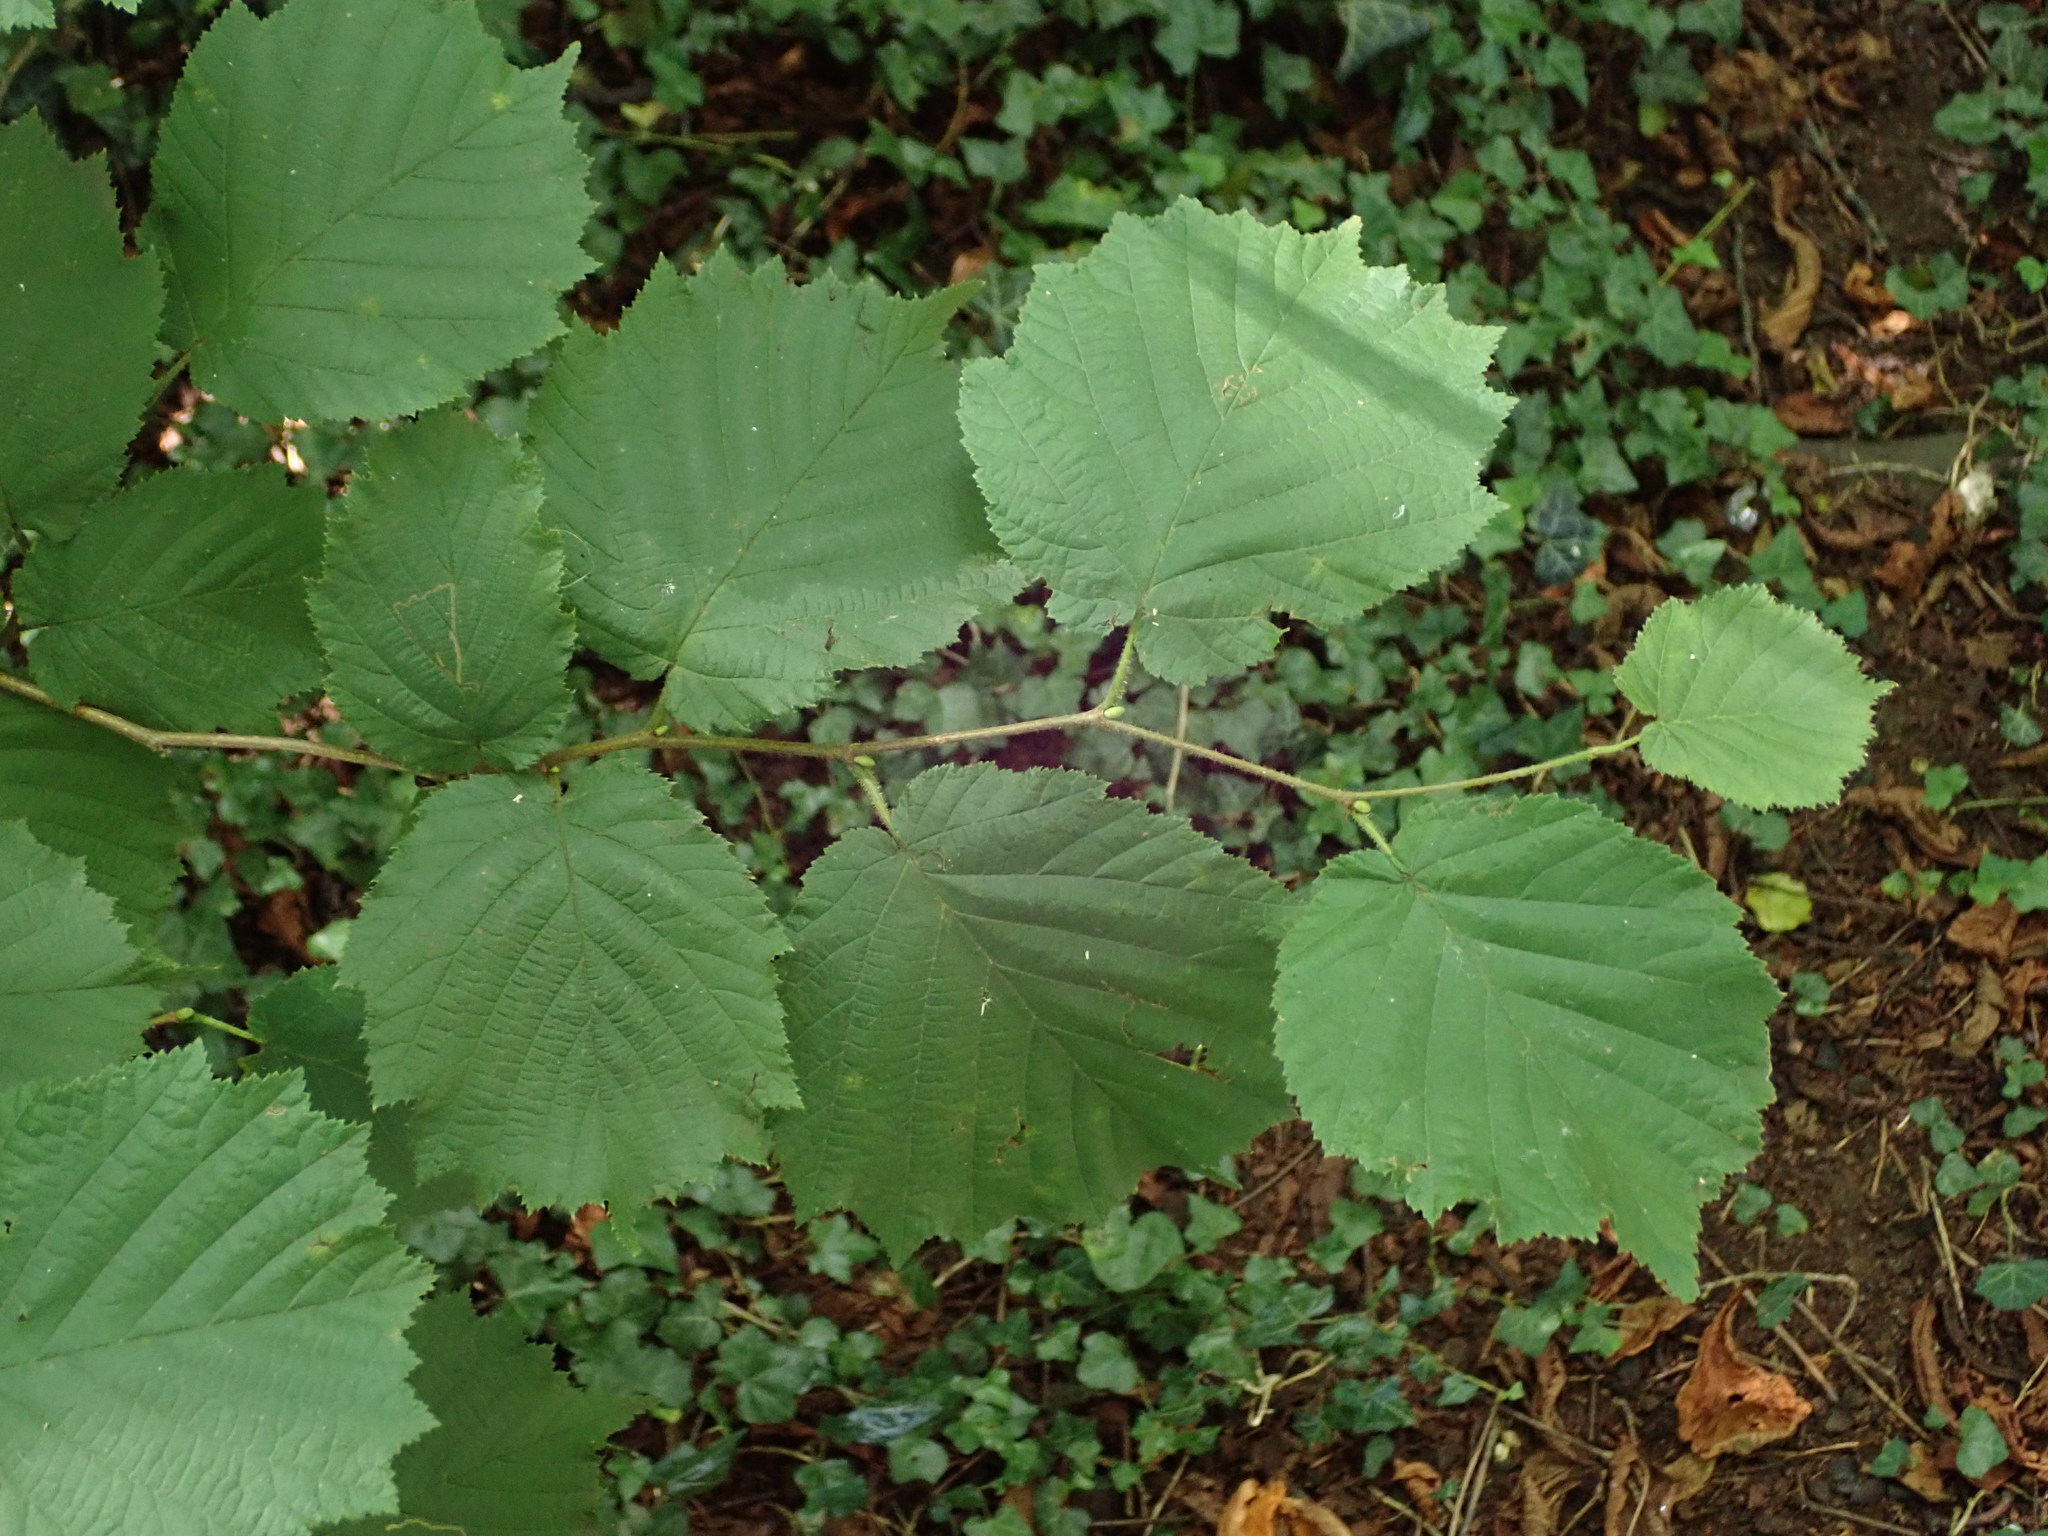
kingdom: Plantae
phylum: Tracheophyta
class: Magnoliopsida
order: Fagales
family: Betulaceae
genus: Corylus
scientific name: Corylus avellana
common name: European hazel
